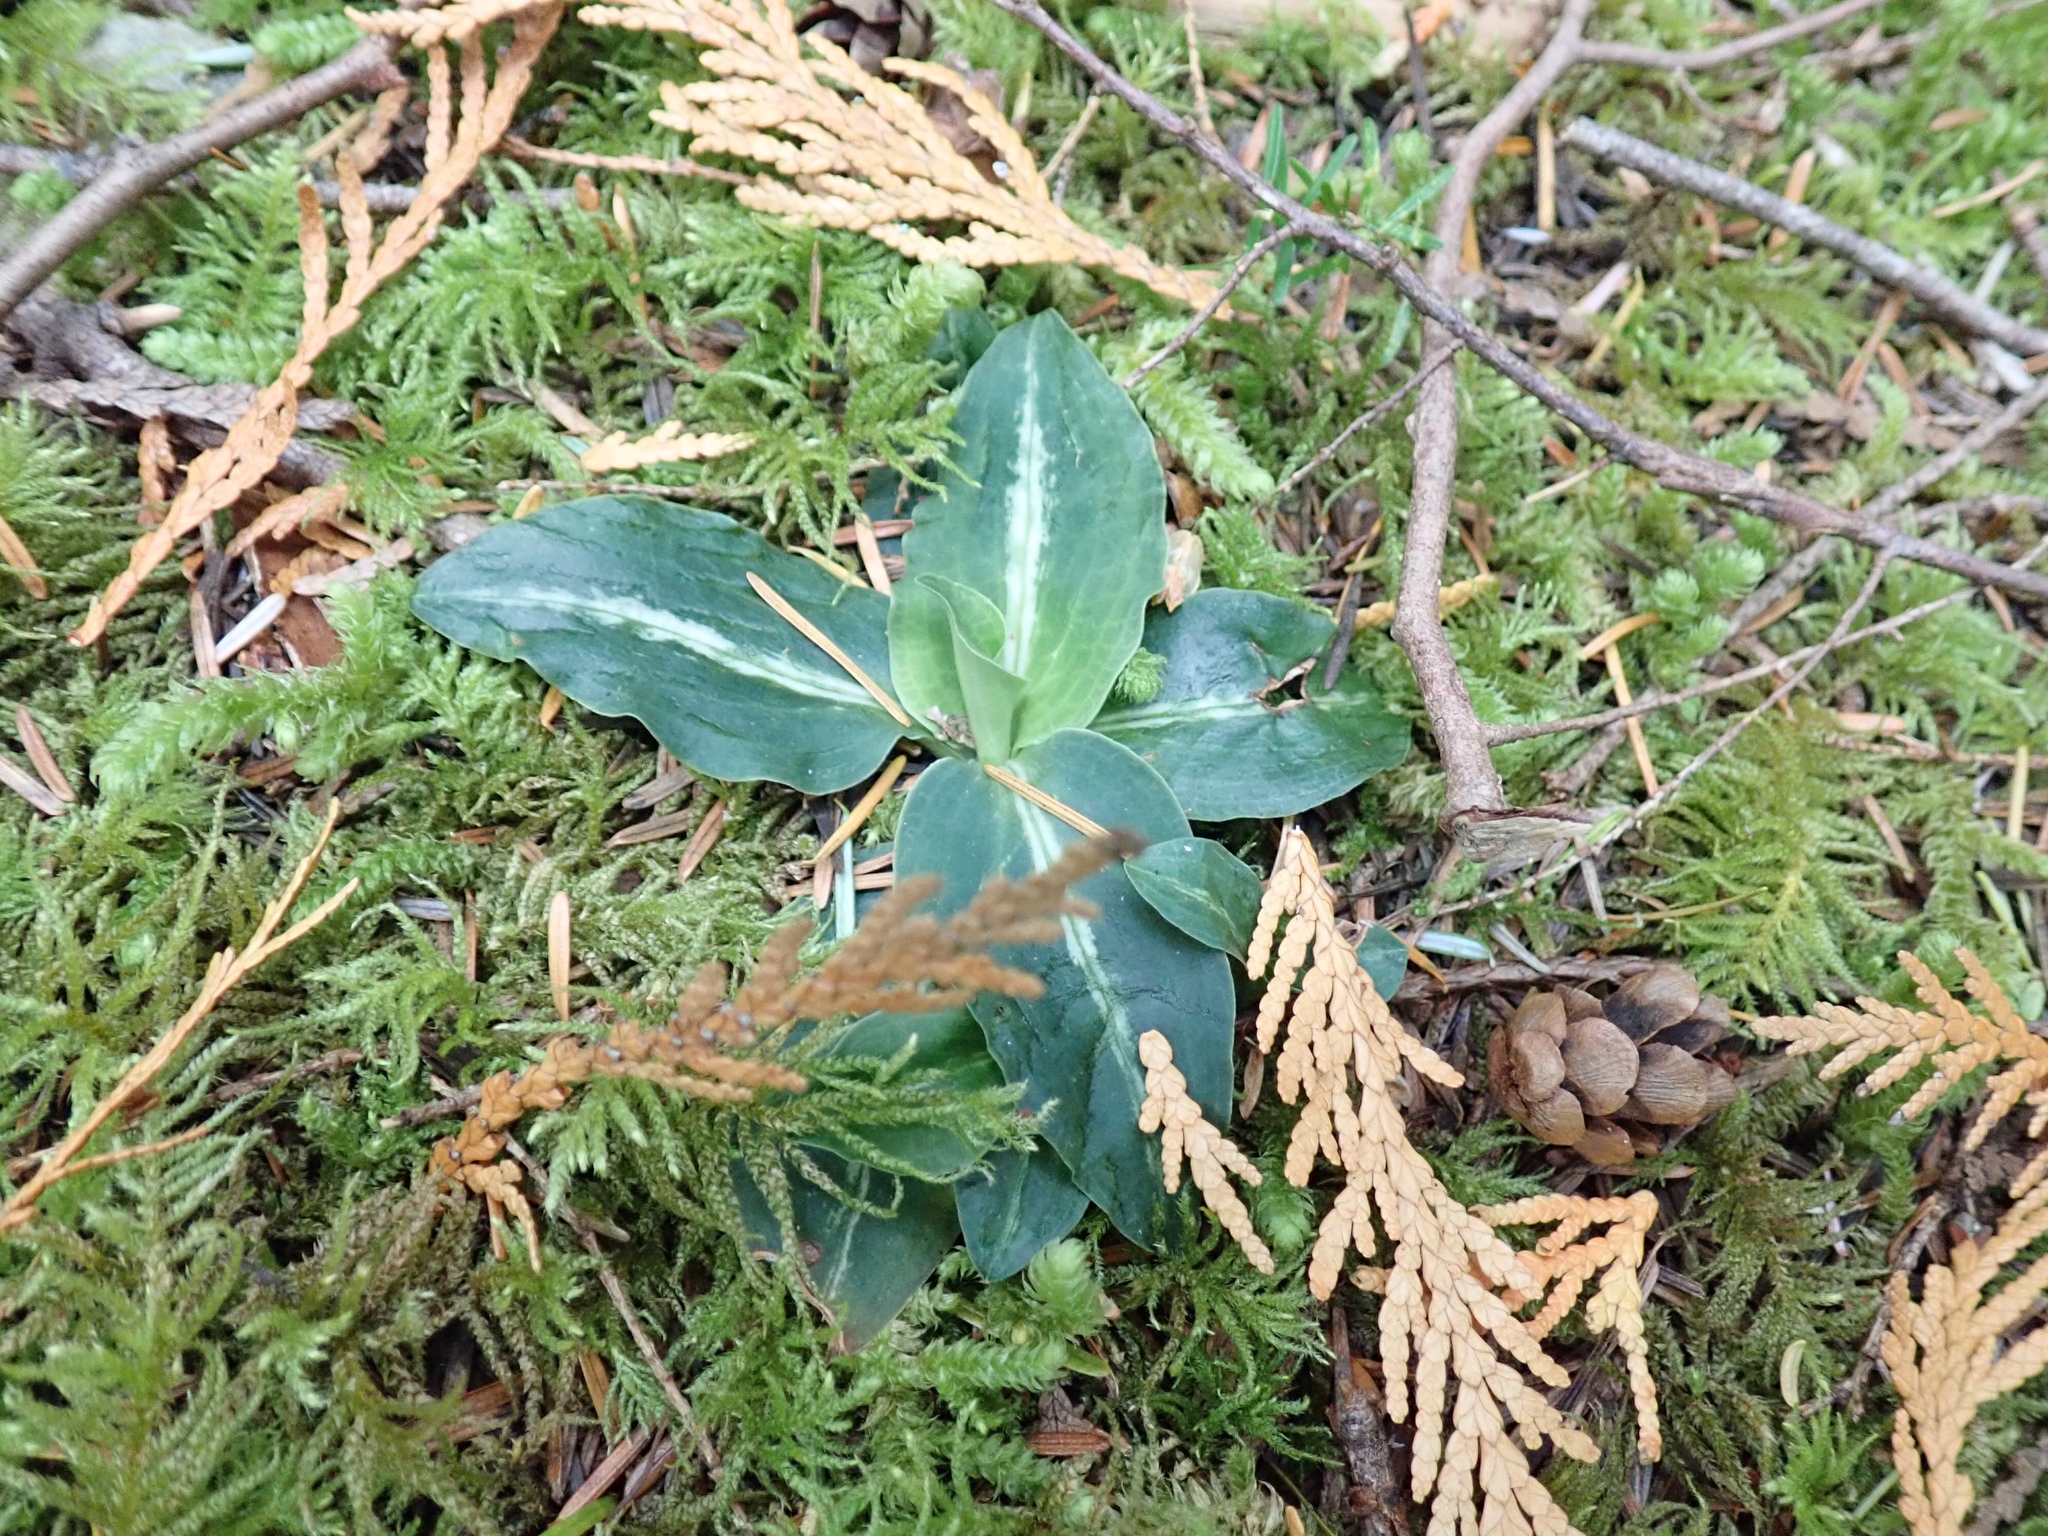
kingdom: Plantae
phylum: Tracheophyta
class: Liliopsida
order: Asparagales
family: Orchidaceae
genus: Goodyera
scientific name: Goodyera oblongifolia
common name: Giant rattlesnake-plantain
